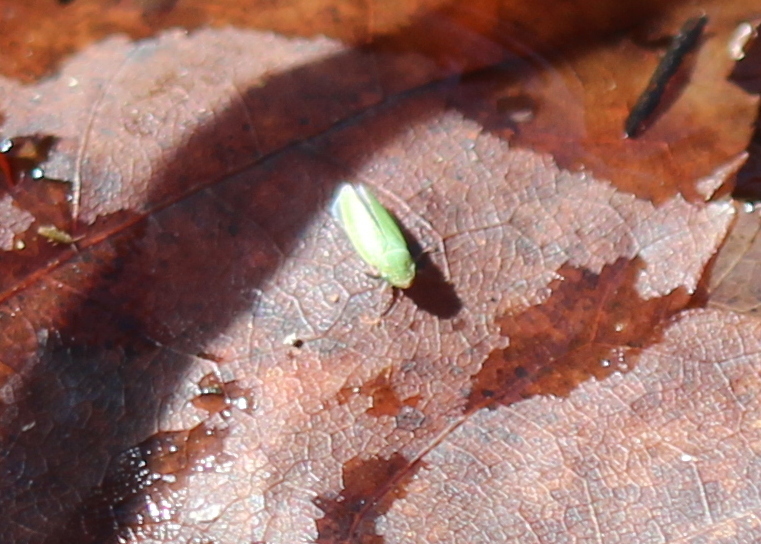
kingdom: Animalia
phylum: Arthropoda
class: Insecta
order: Hemiptera
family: Cicadellidae
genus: Helochara
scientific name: Helochara communis
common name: Bog leafhopper
